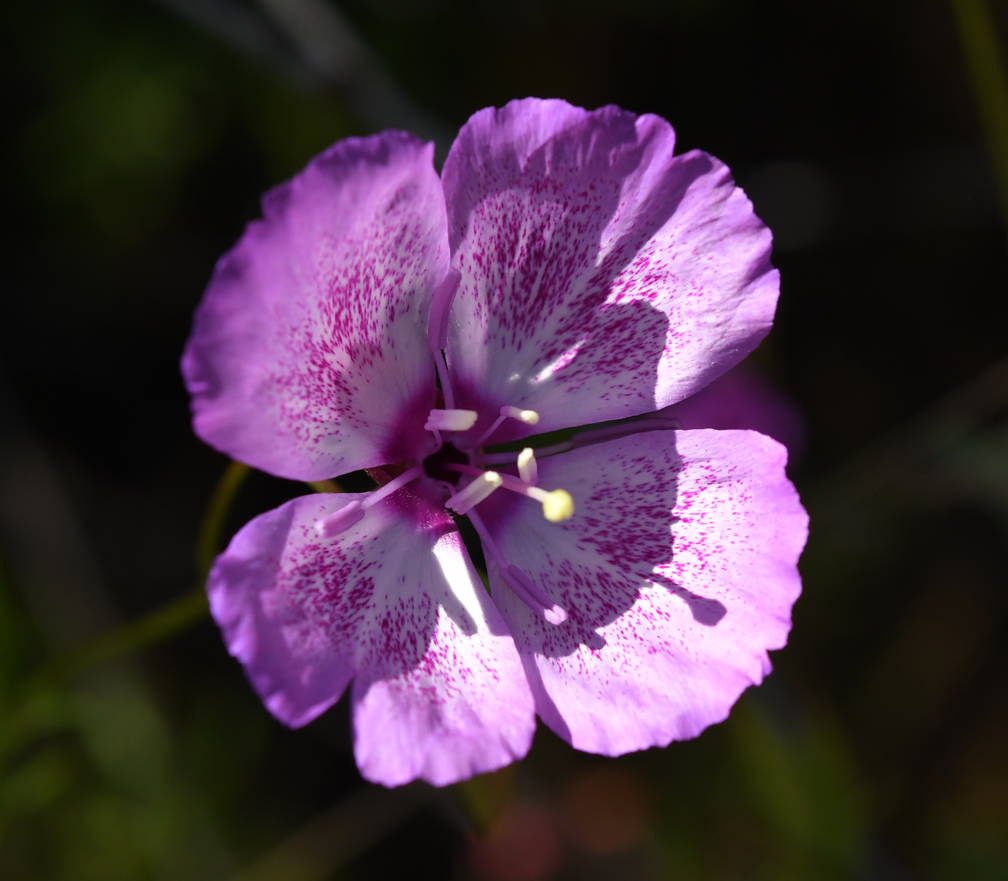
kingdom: Plantae
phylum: Tracheophyta
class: Magnoliopsida
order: Myrtales
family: Onagraceae
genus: Clarkia
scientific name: Clarkia cylindrica
